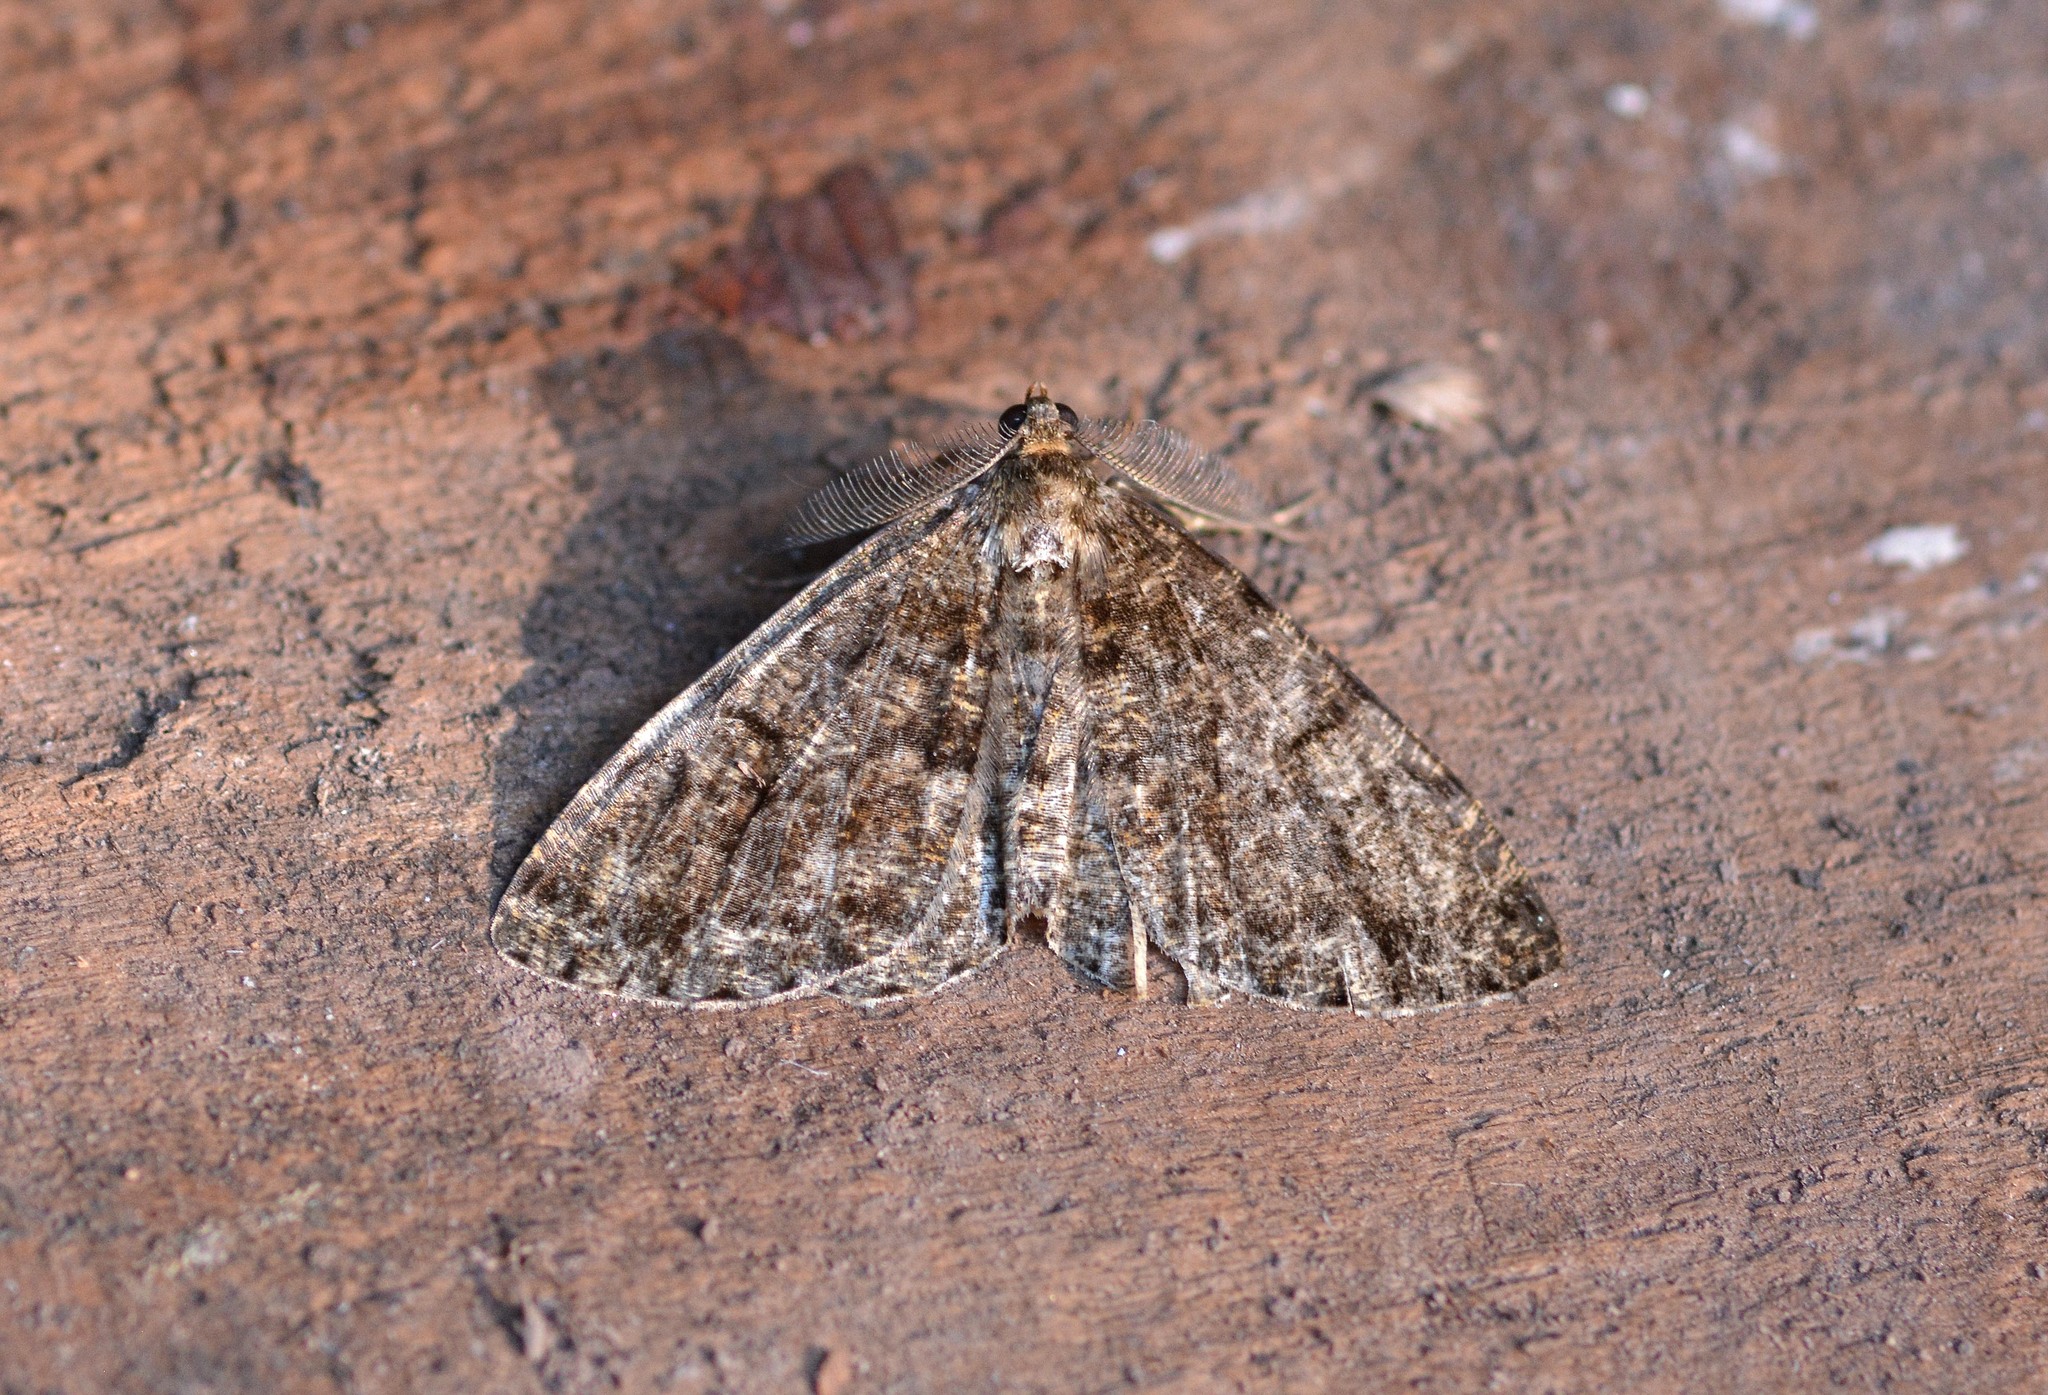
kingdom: Animalia
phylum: Arthropoda
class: Insecta
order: Lepidoptera
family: Geometridae
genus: Deileptenia
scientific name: Deileptenia ribeata
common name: Satin beauty
